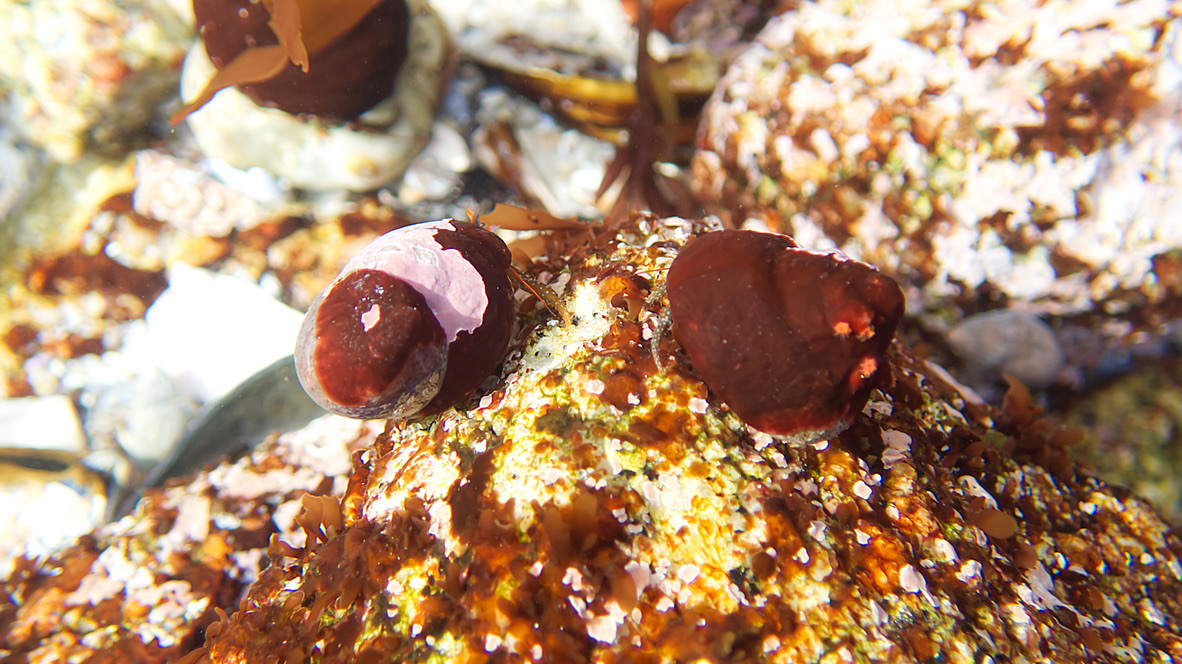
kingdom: Animalia
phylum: Arthropoda
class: Malacostraca
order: Decapoda
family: Paguridae
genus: Pagurus
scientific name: Pagurus granosimanus
